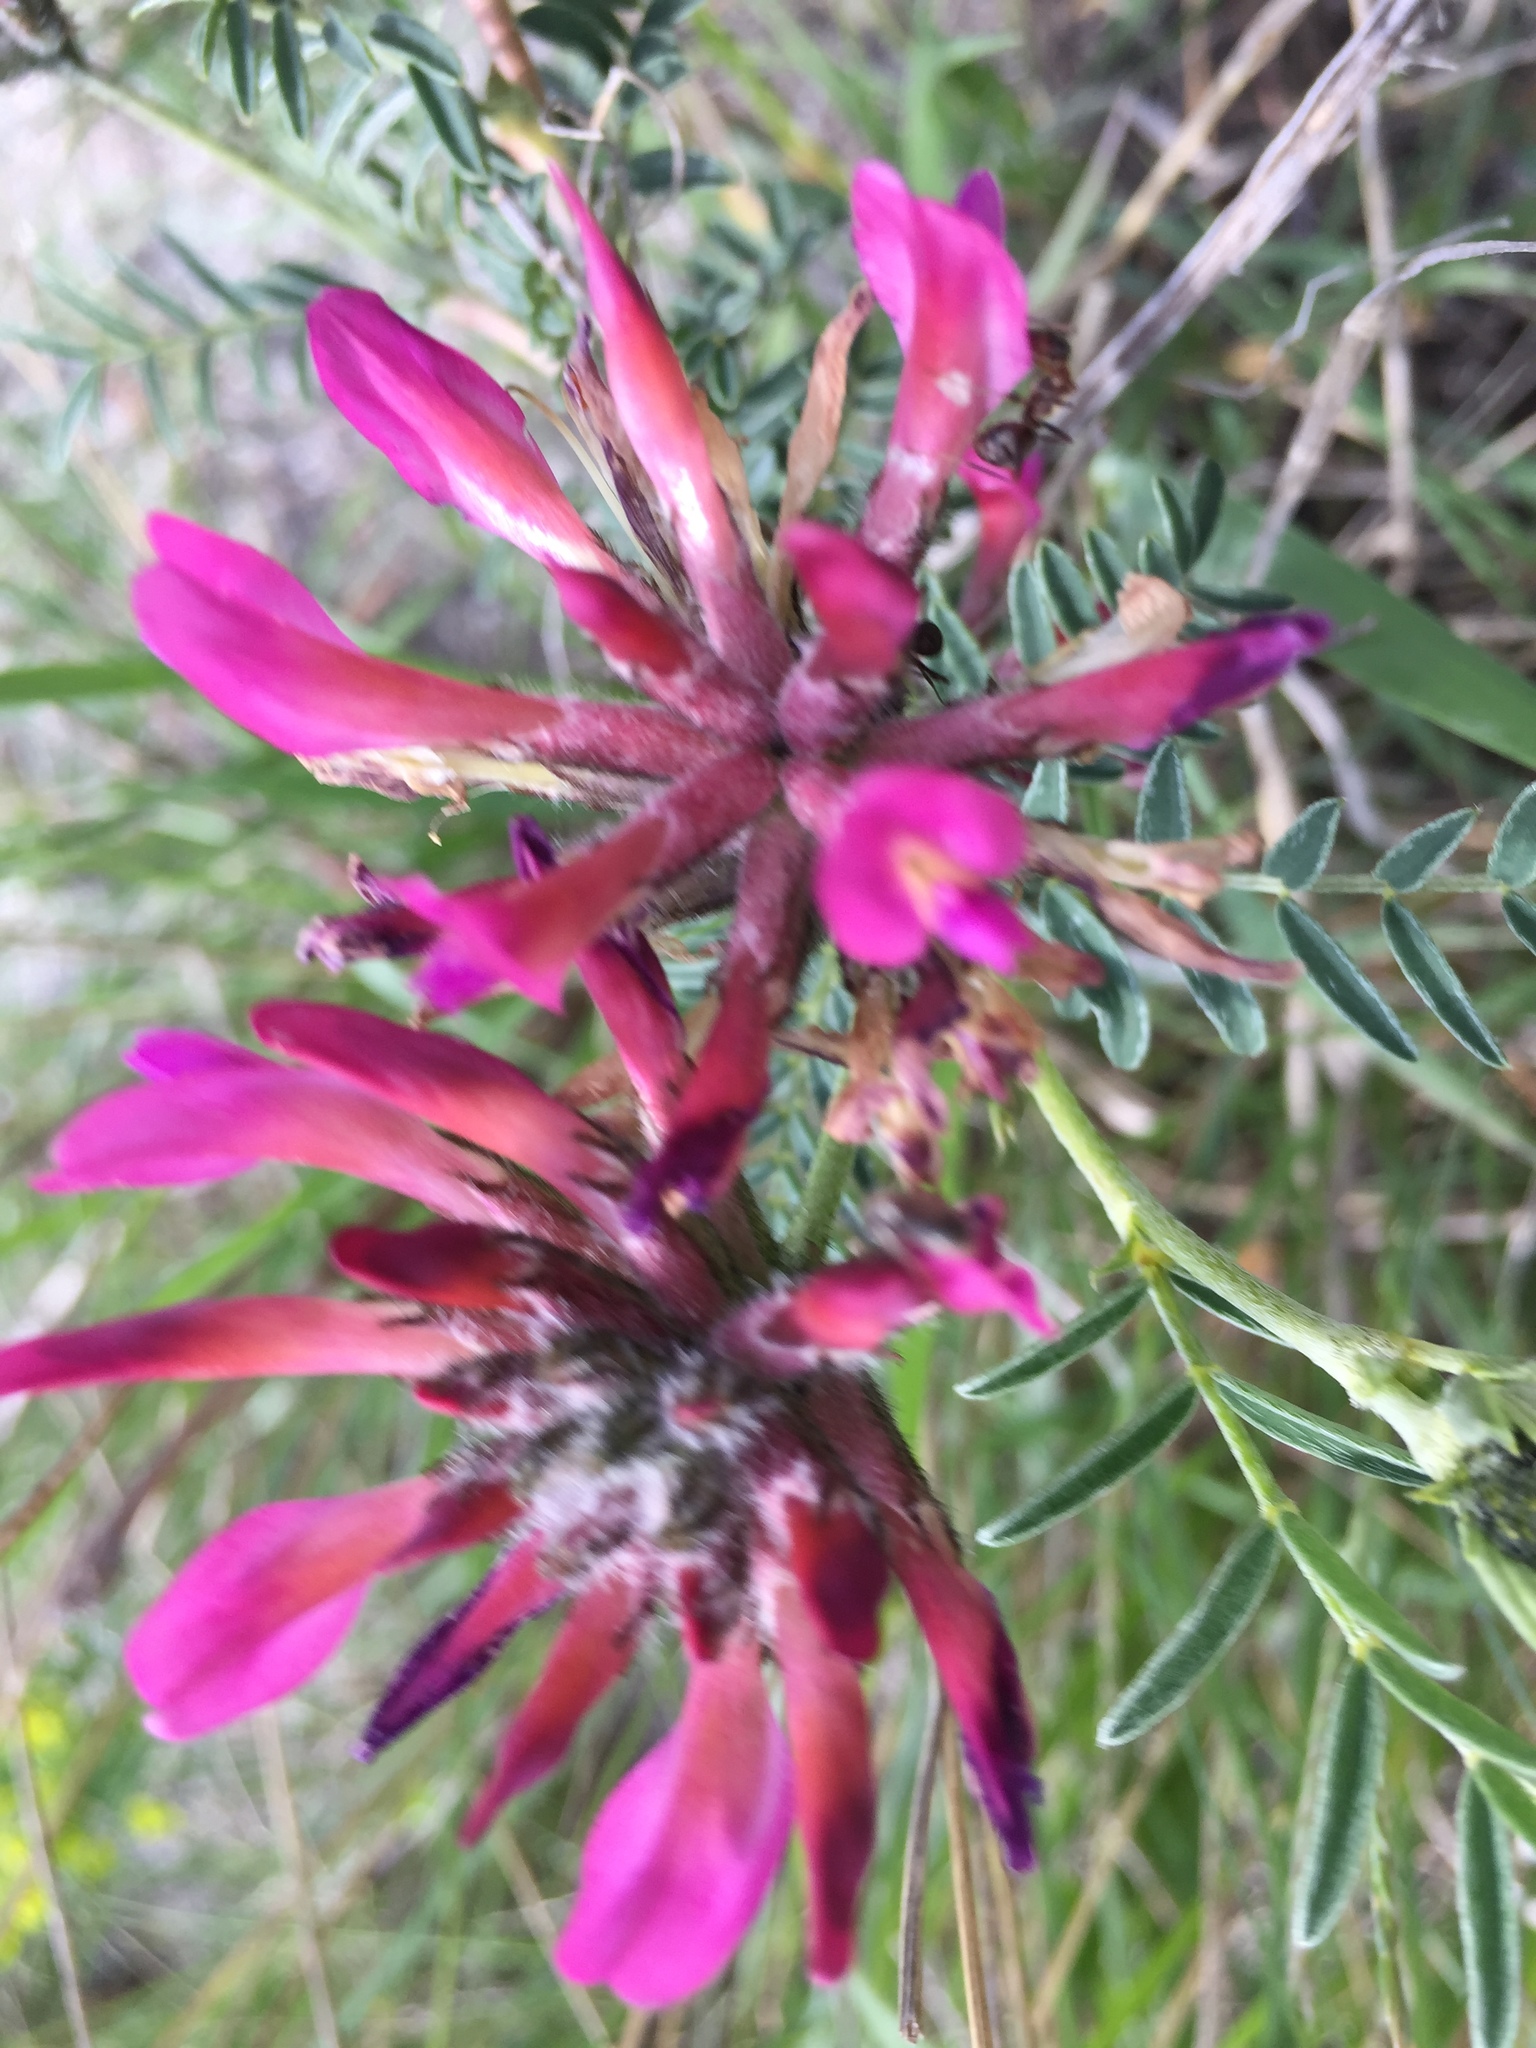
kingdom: Plantae
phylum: Tracheophyta
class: Magnoliopsida
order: Fabales
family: Fabaceae
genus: Astragalus
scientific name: Astragalus cornutus
